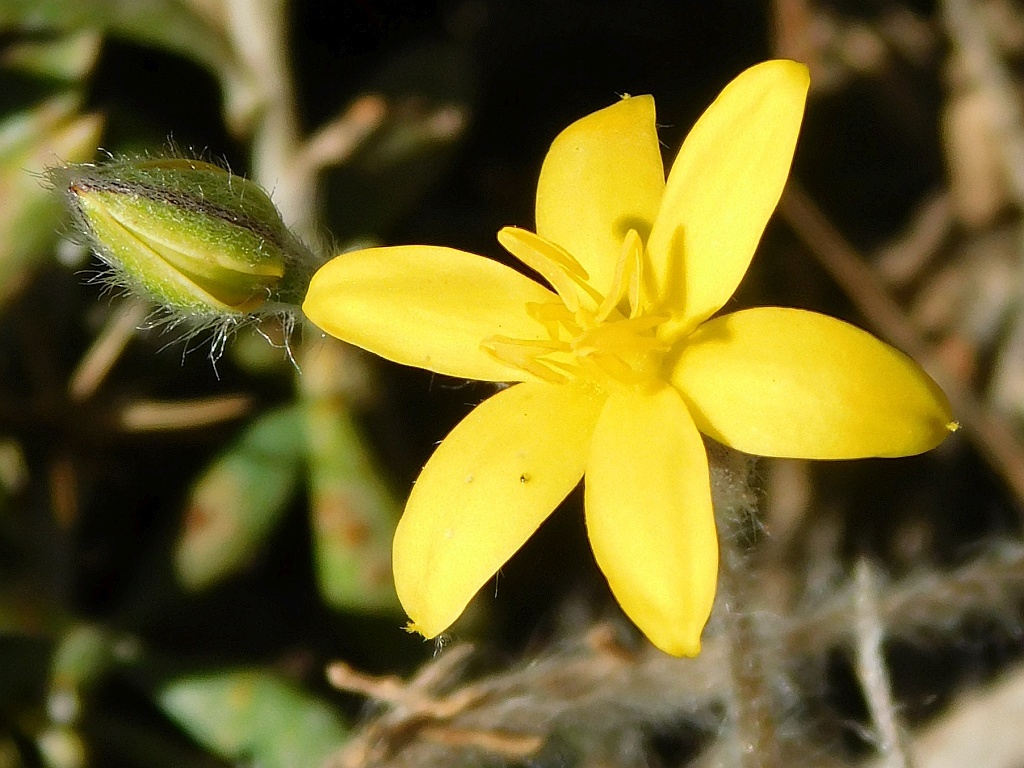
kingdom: Plantae
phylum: Tracheophyta
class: Liliopsida
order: Asparagales
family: Hypoxidaceae
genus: Hypoxis
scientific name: Hypoxis floccosa
